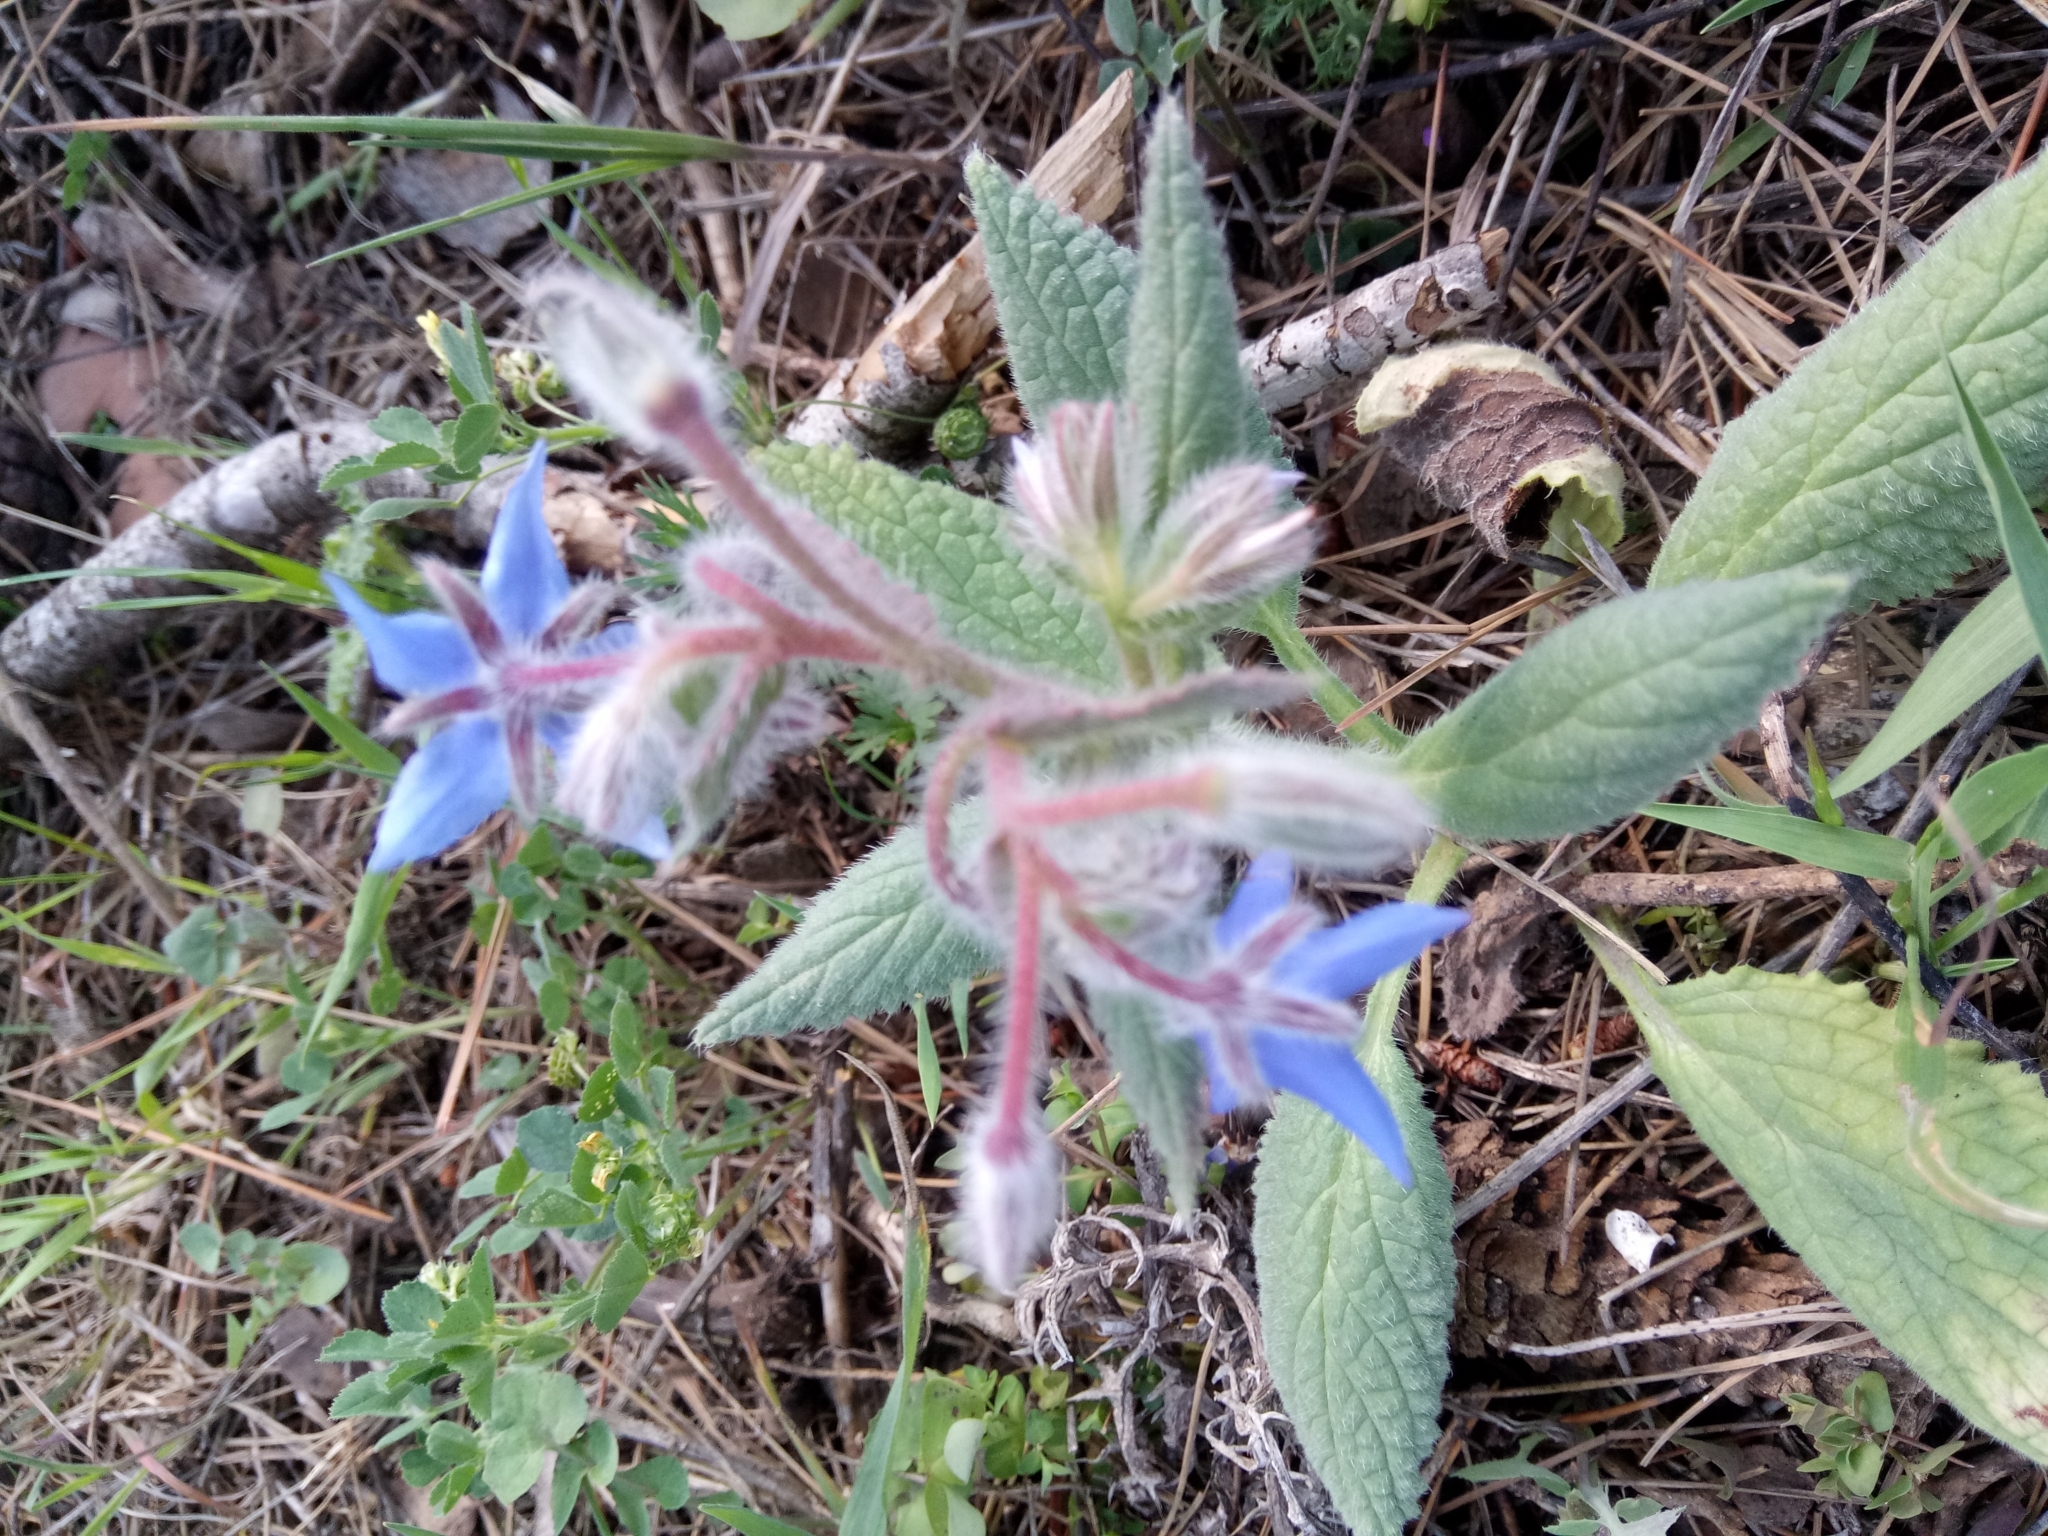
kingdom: Plantae
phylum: Tracheophyta
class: Magnoliopsida
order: Boraginales
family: Boraginaceae
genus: Borago
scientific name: Borago officinalis
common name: Borage
